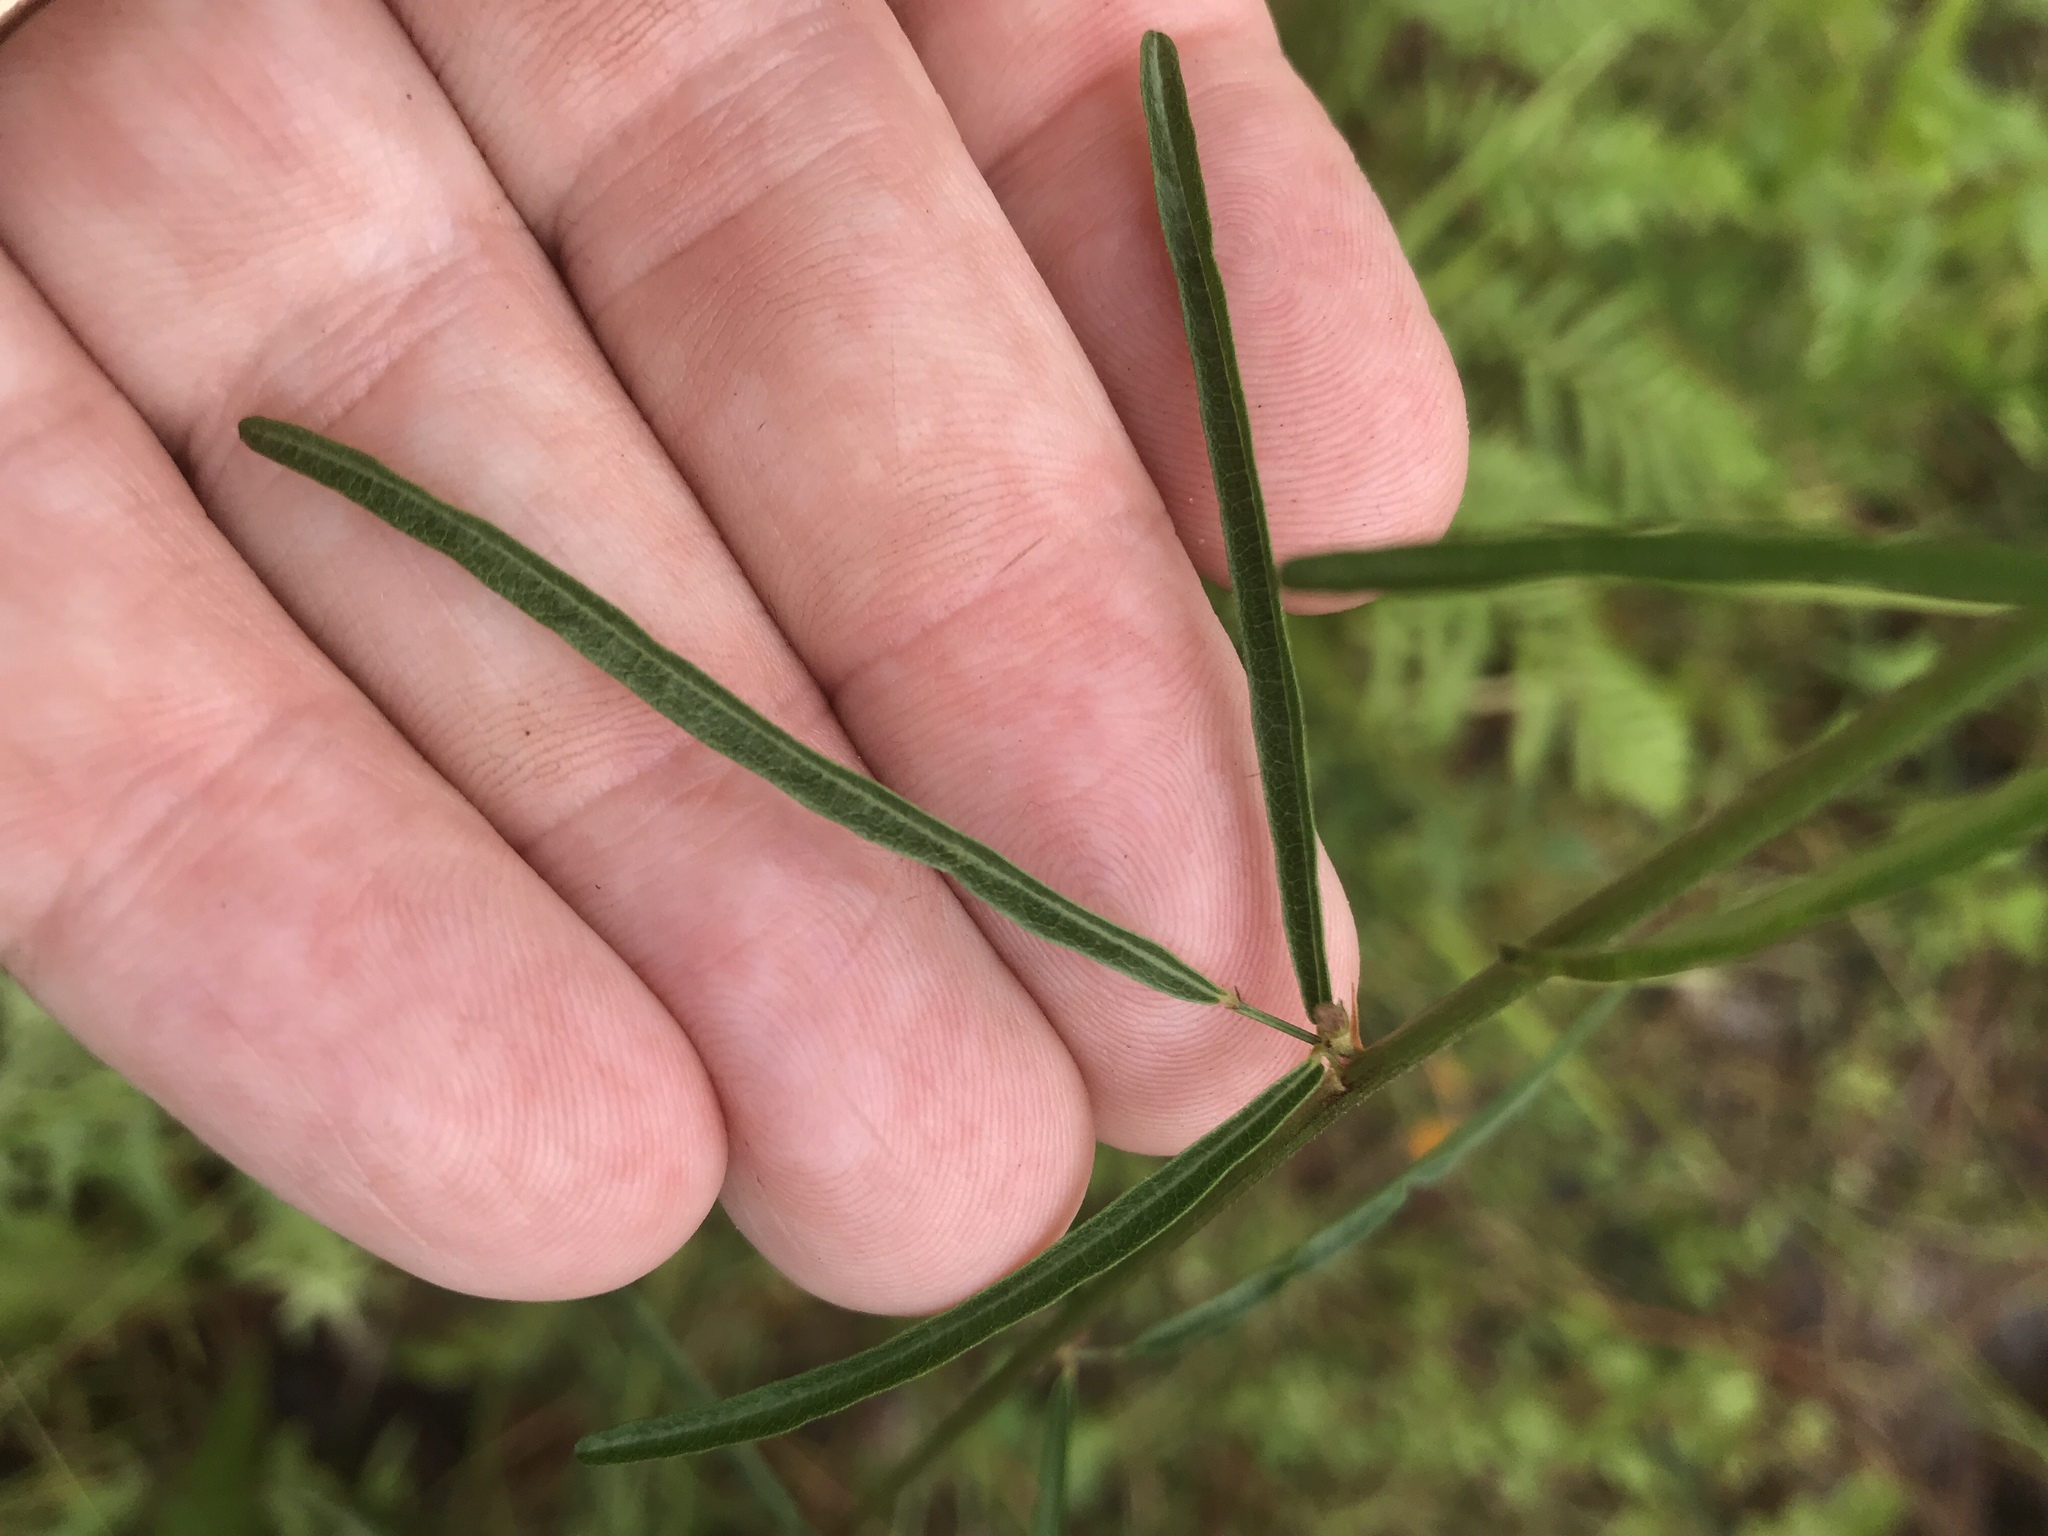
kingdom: Plantae
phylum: Tracheophyta
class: Magnoliopsida
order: Fabales
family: Fabaceae
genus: Desmodium
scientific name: Desmodium tenuifolium
